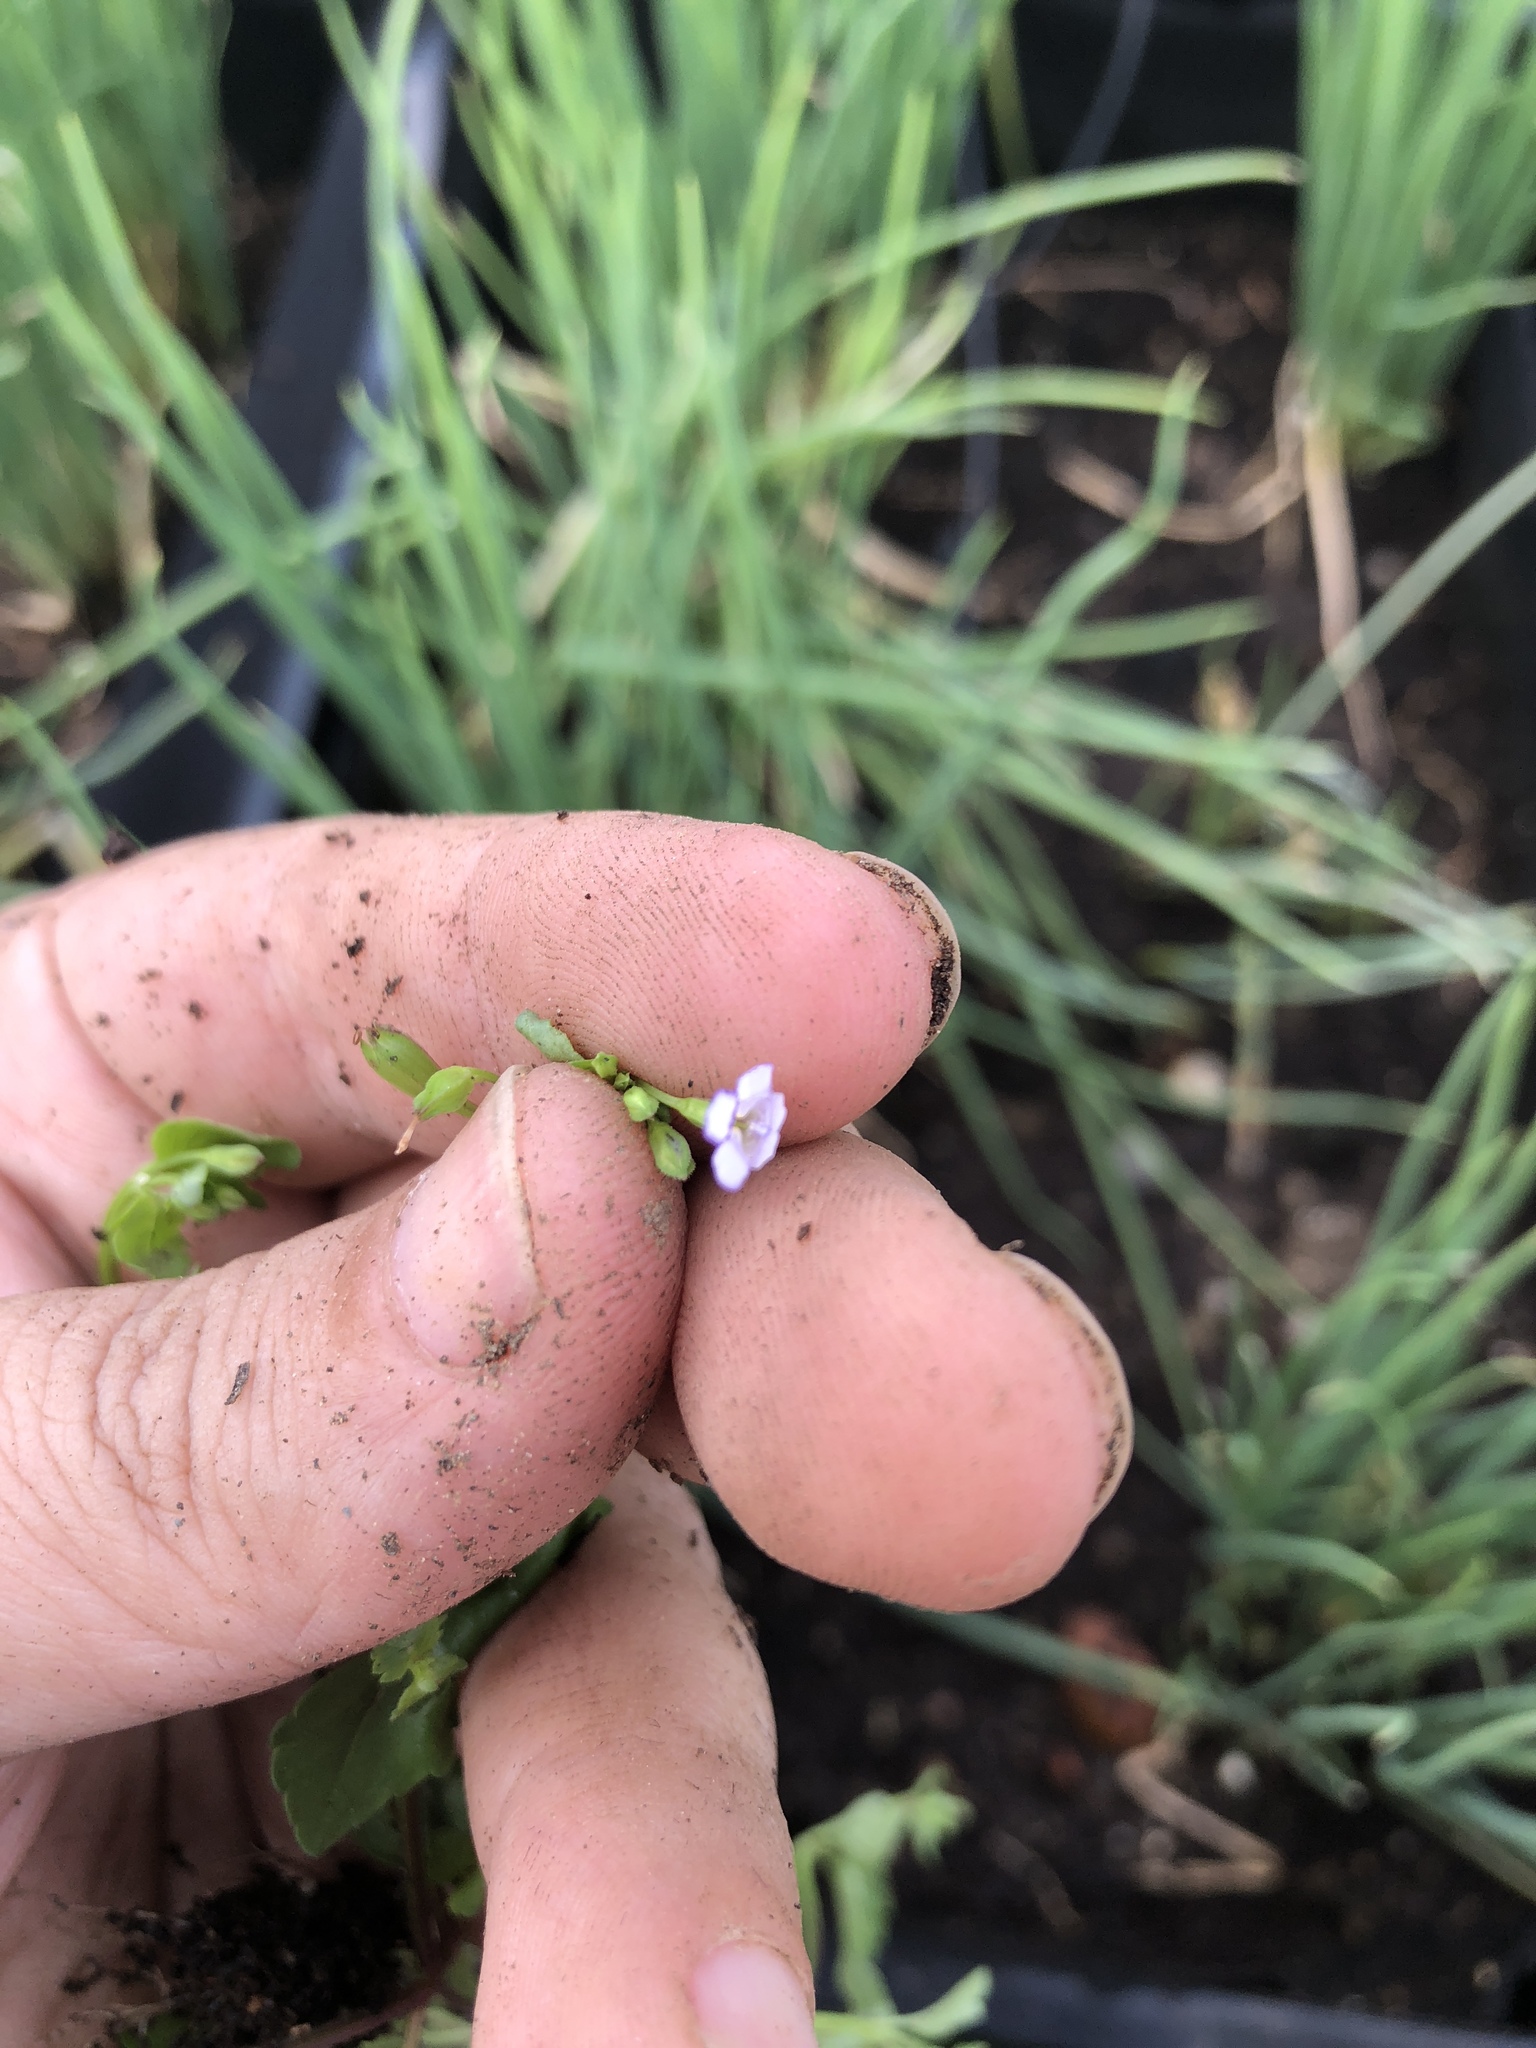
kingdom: Plantae
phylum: Tracheophyta
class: Magnoliopsida
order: Lamiales
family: Linderniaceae
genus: Torenia
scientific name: Torenia crustacea
